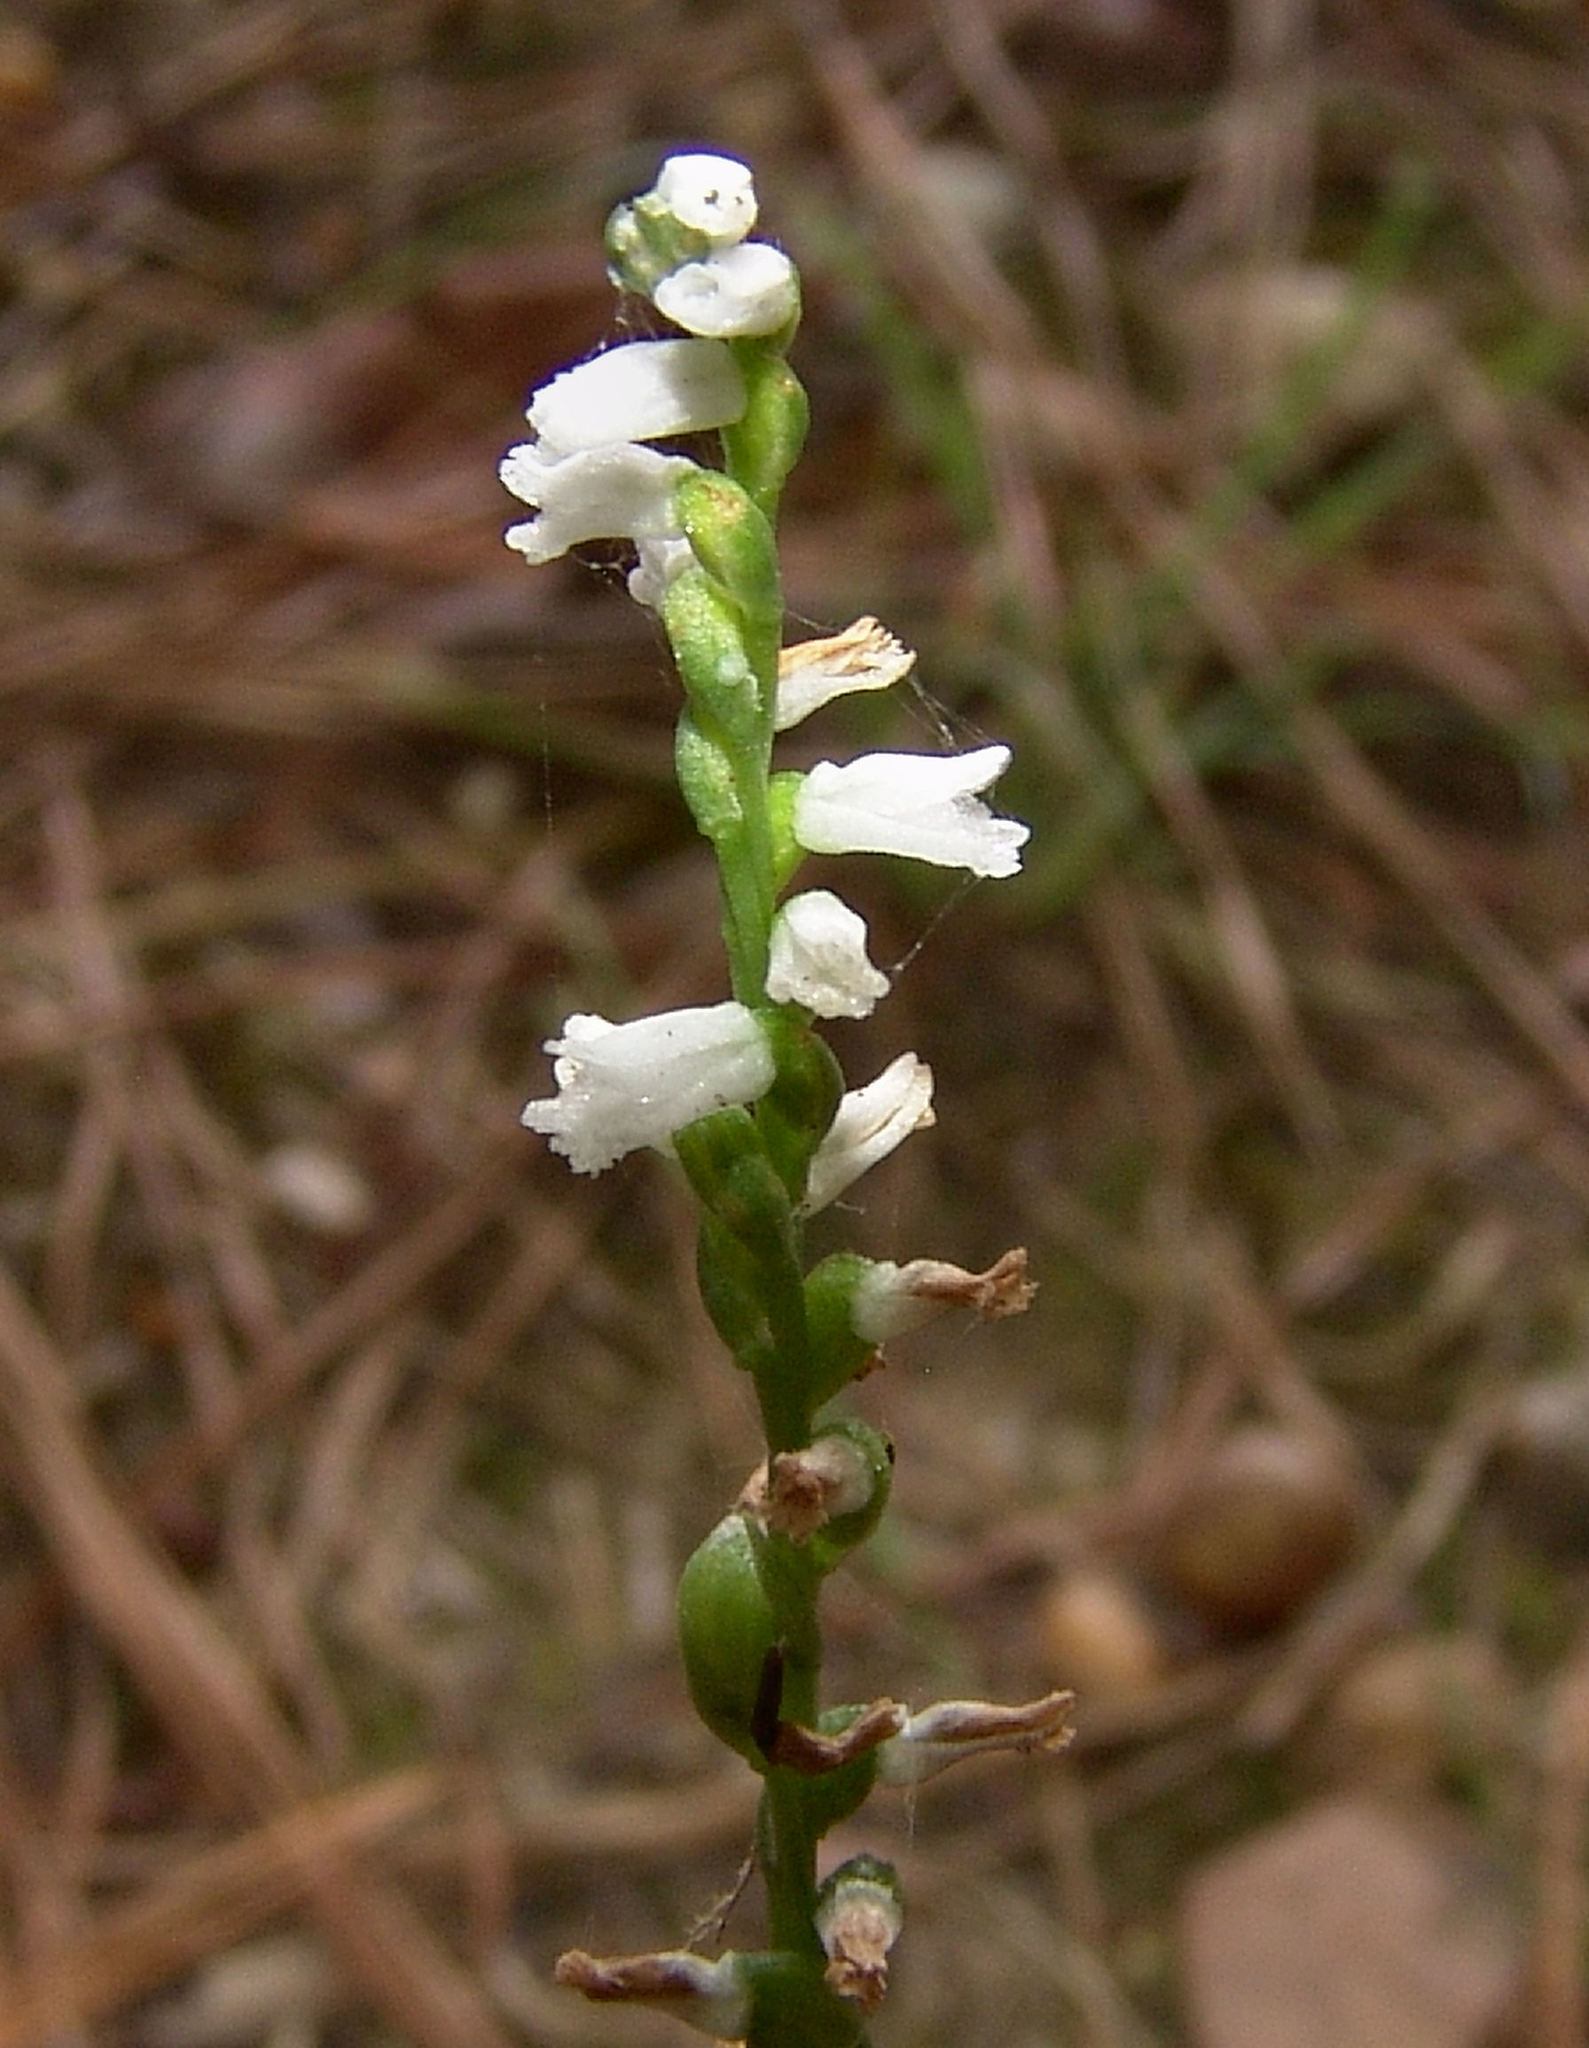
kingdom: Plantae
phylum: Tracheophyta
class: Liliopsida
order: Asparagales
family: Orchidaceae
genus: Spiranthes
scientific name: Spiranthes tuberosa
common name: Little ladies'-tresses
